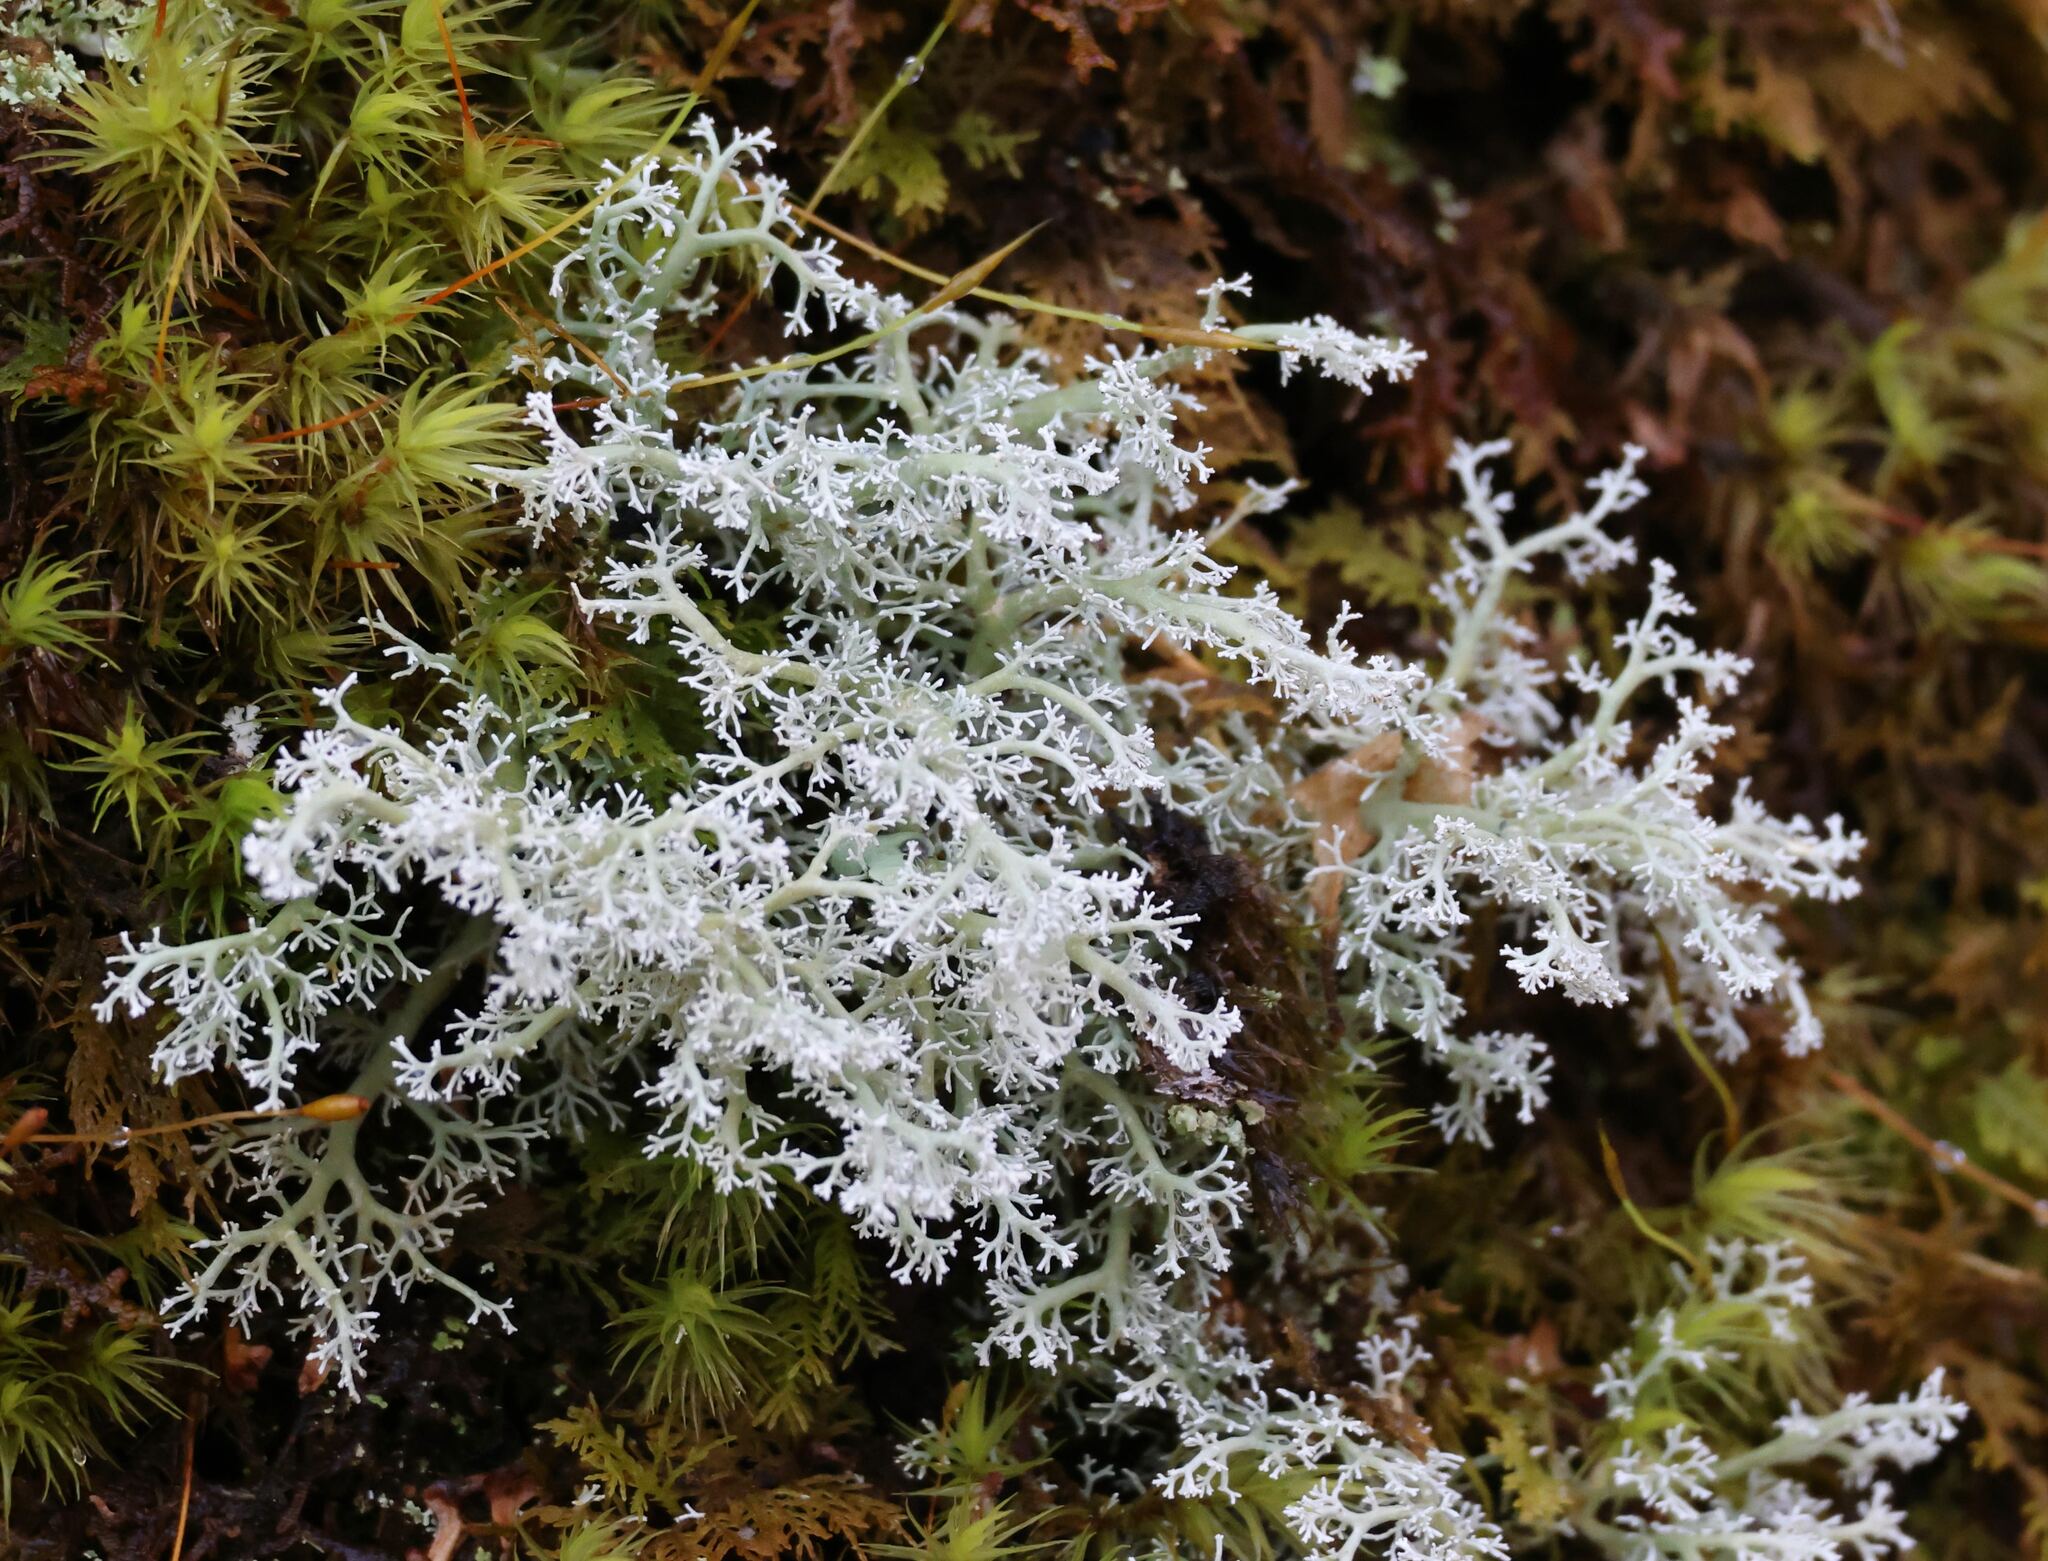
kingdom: Fungi
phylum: Ascomycota
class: Lecanoromycetes
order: Lecanorales
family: Sphaerophoraceae
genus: Sphaerophorus
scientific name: Sphaerophorus globosus
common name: Globe ball lichen
